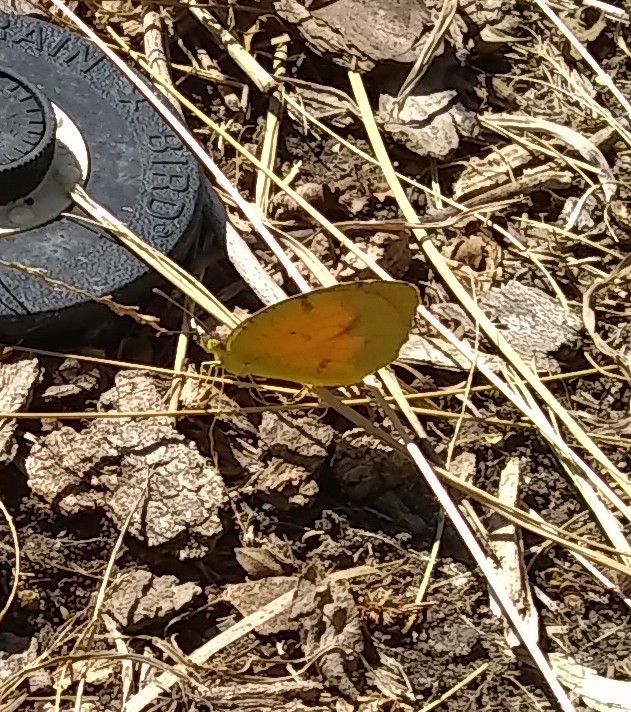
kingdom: Animalia
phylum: Arthropoda
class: Insecta
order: Lepidoptera
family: Pieridae
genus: Abaeis
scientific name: Abaeis nicippe
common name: Sleepy orange
